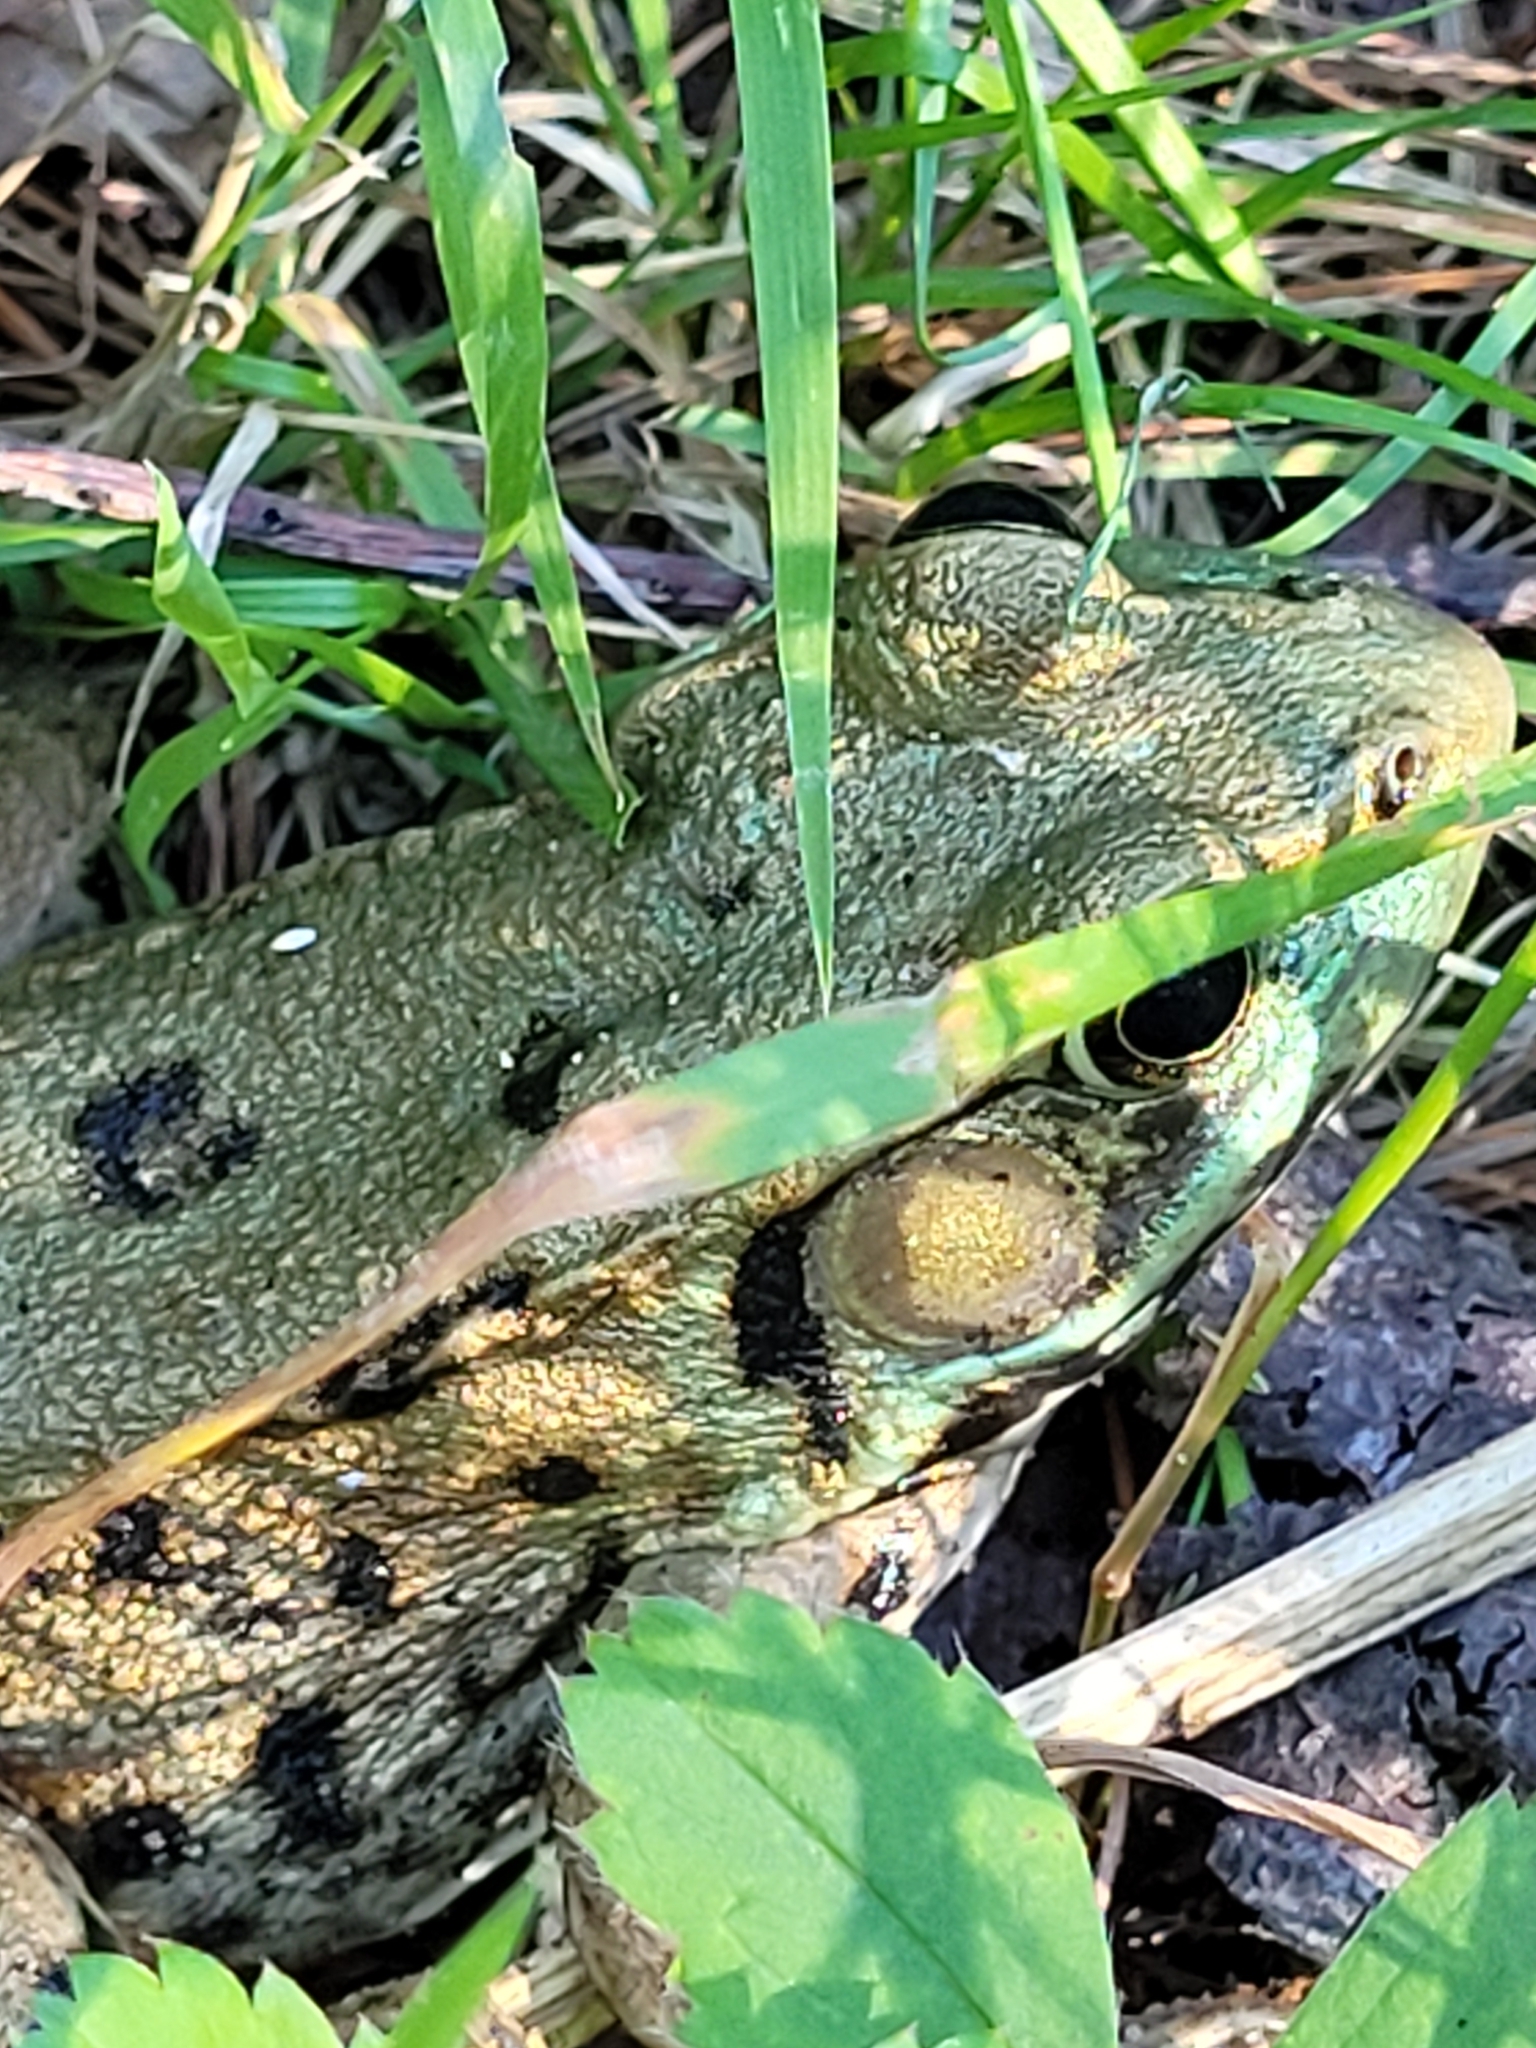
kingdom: Animalia
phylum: Chordata
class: Amphibia
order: Anura
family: Ranidae
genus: Lithobates
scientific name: Lithobates clamitans
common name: Green frog
